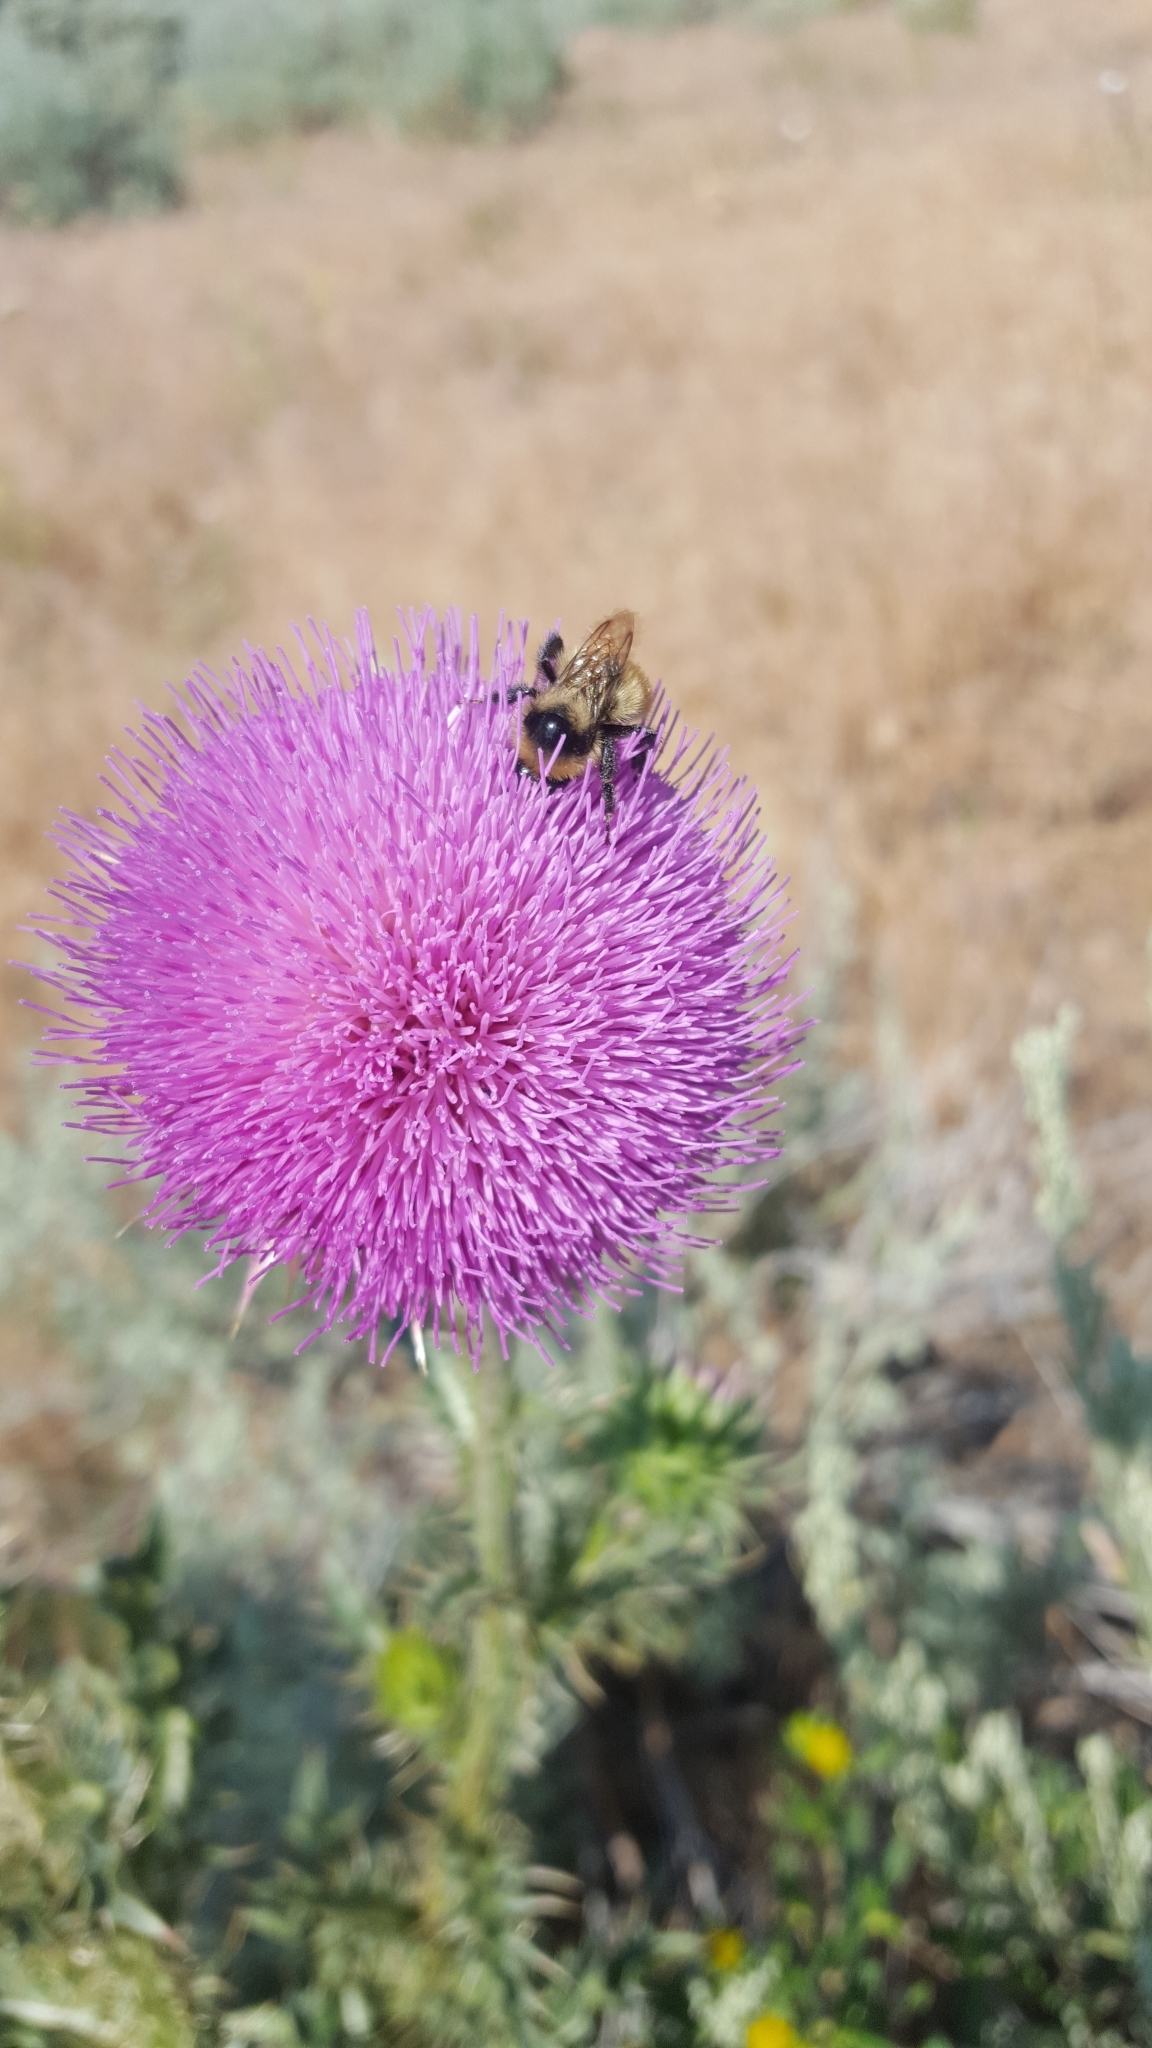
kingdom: Animalia
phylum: Arthropoda
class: Insecta
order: Hymenoptera
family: Apidae
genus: Bombus
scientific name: Bombus centralis
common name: Central bumble bee
